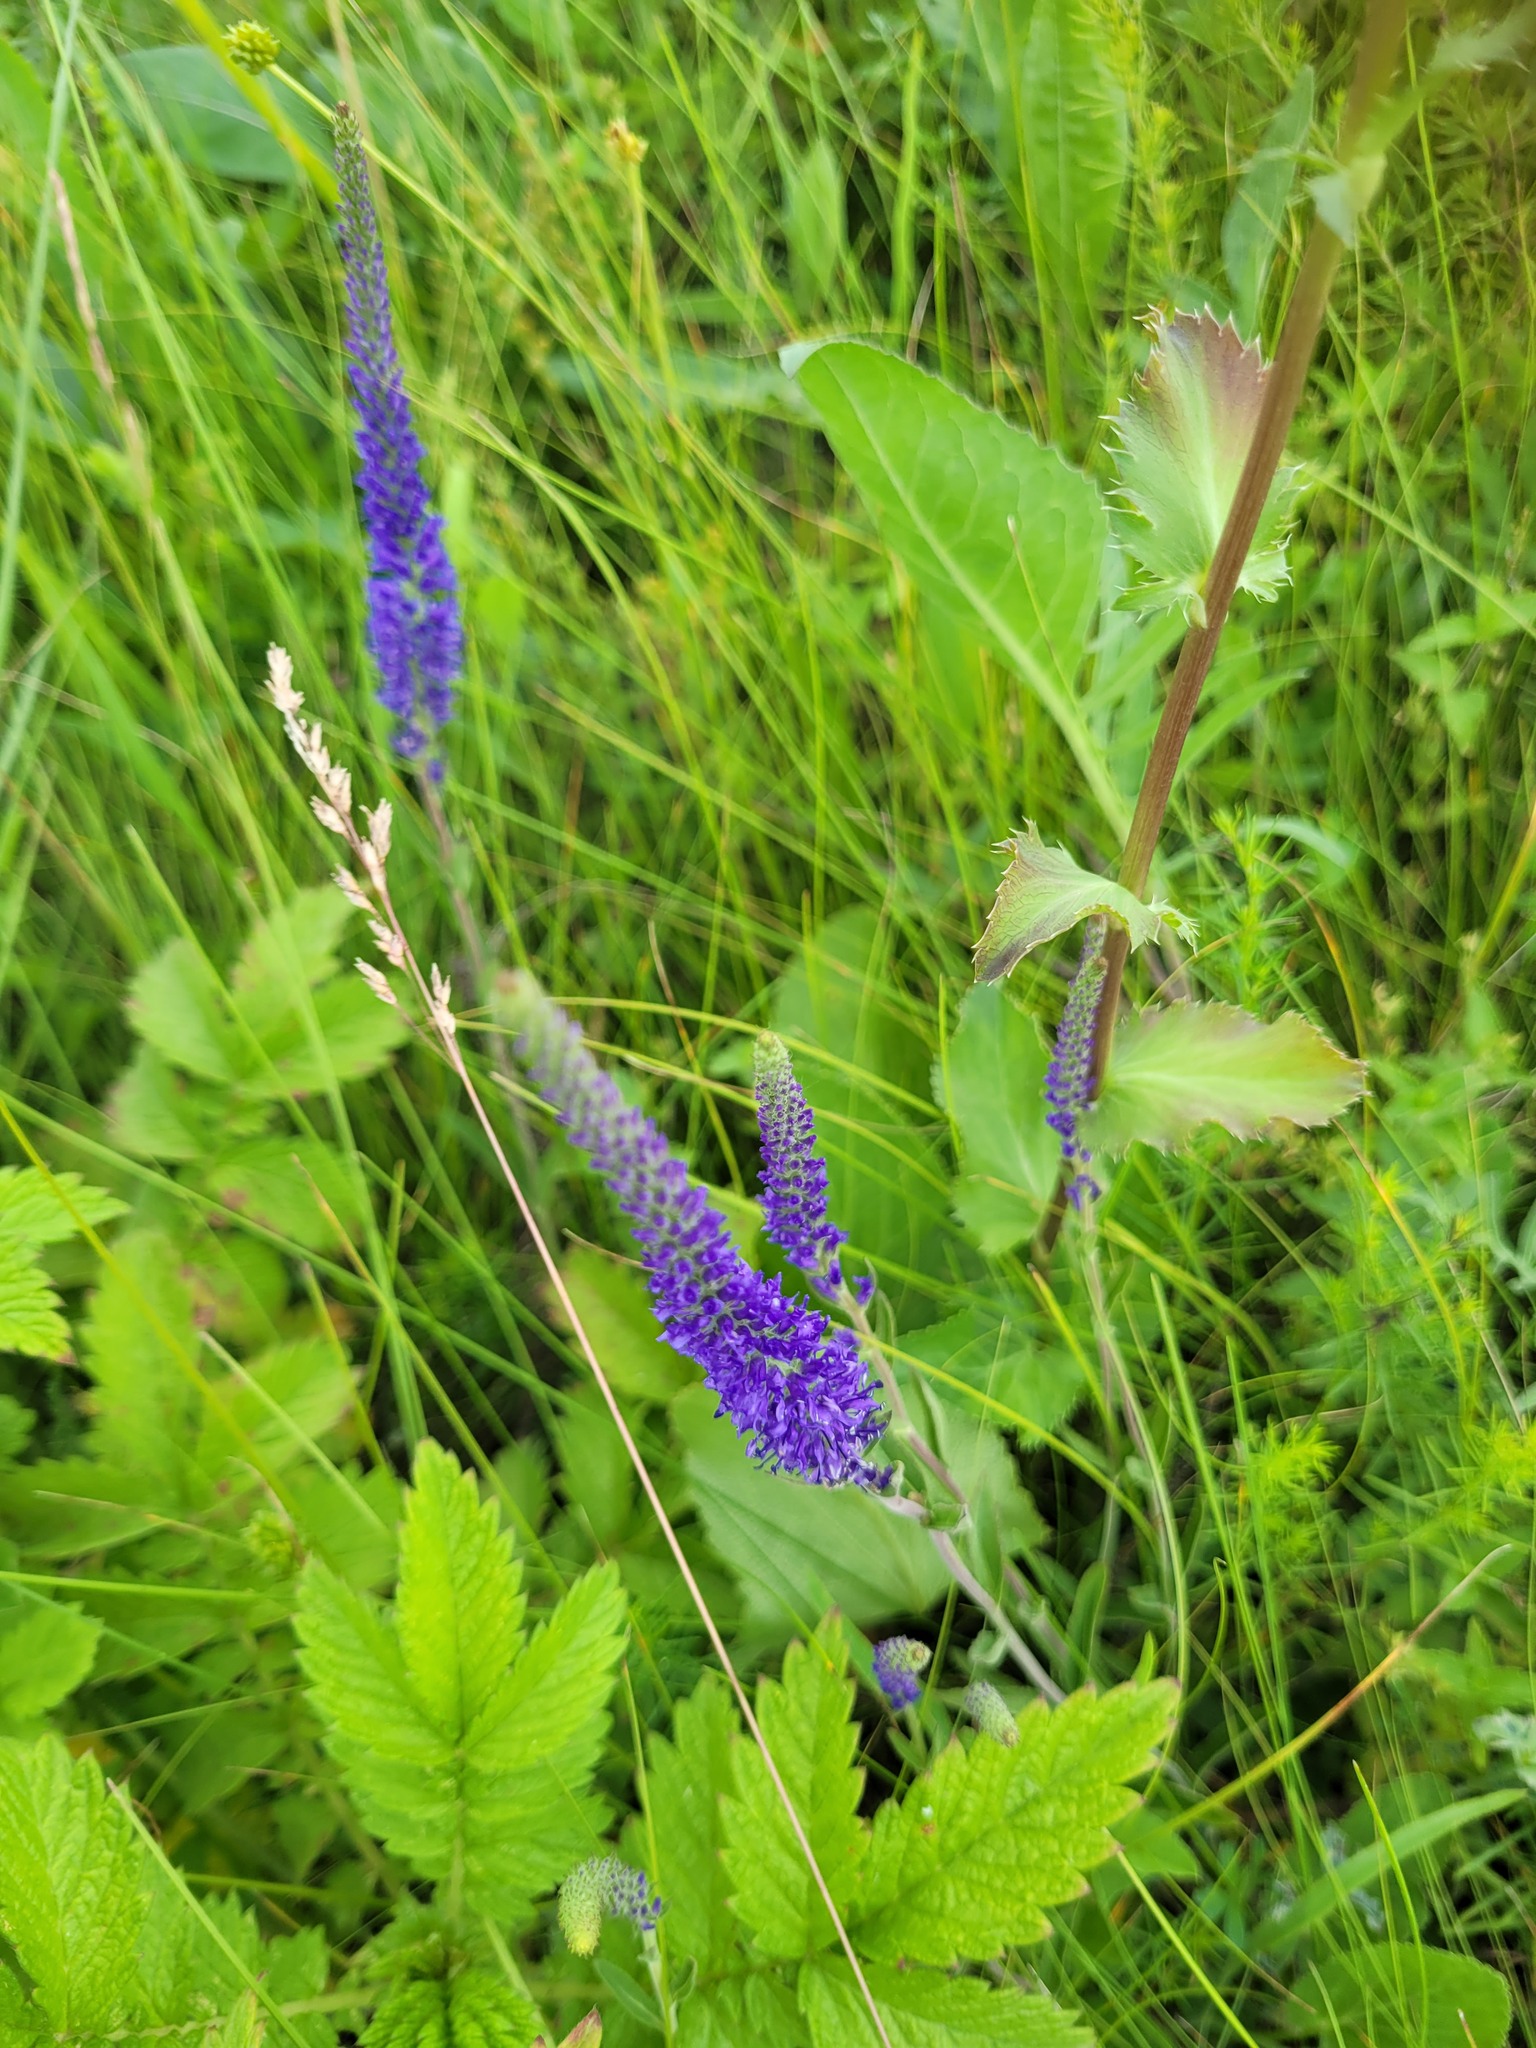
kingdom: Plantae
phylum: Tracheophyta
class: Magnoliopsida
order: Lamiales
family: Plantaginaceae
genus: Veronica
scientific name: Veronica spicata
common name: Spiked speedwell
